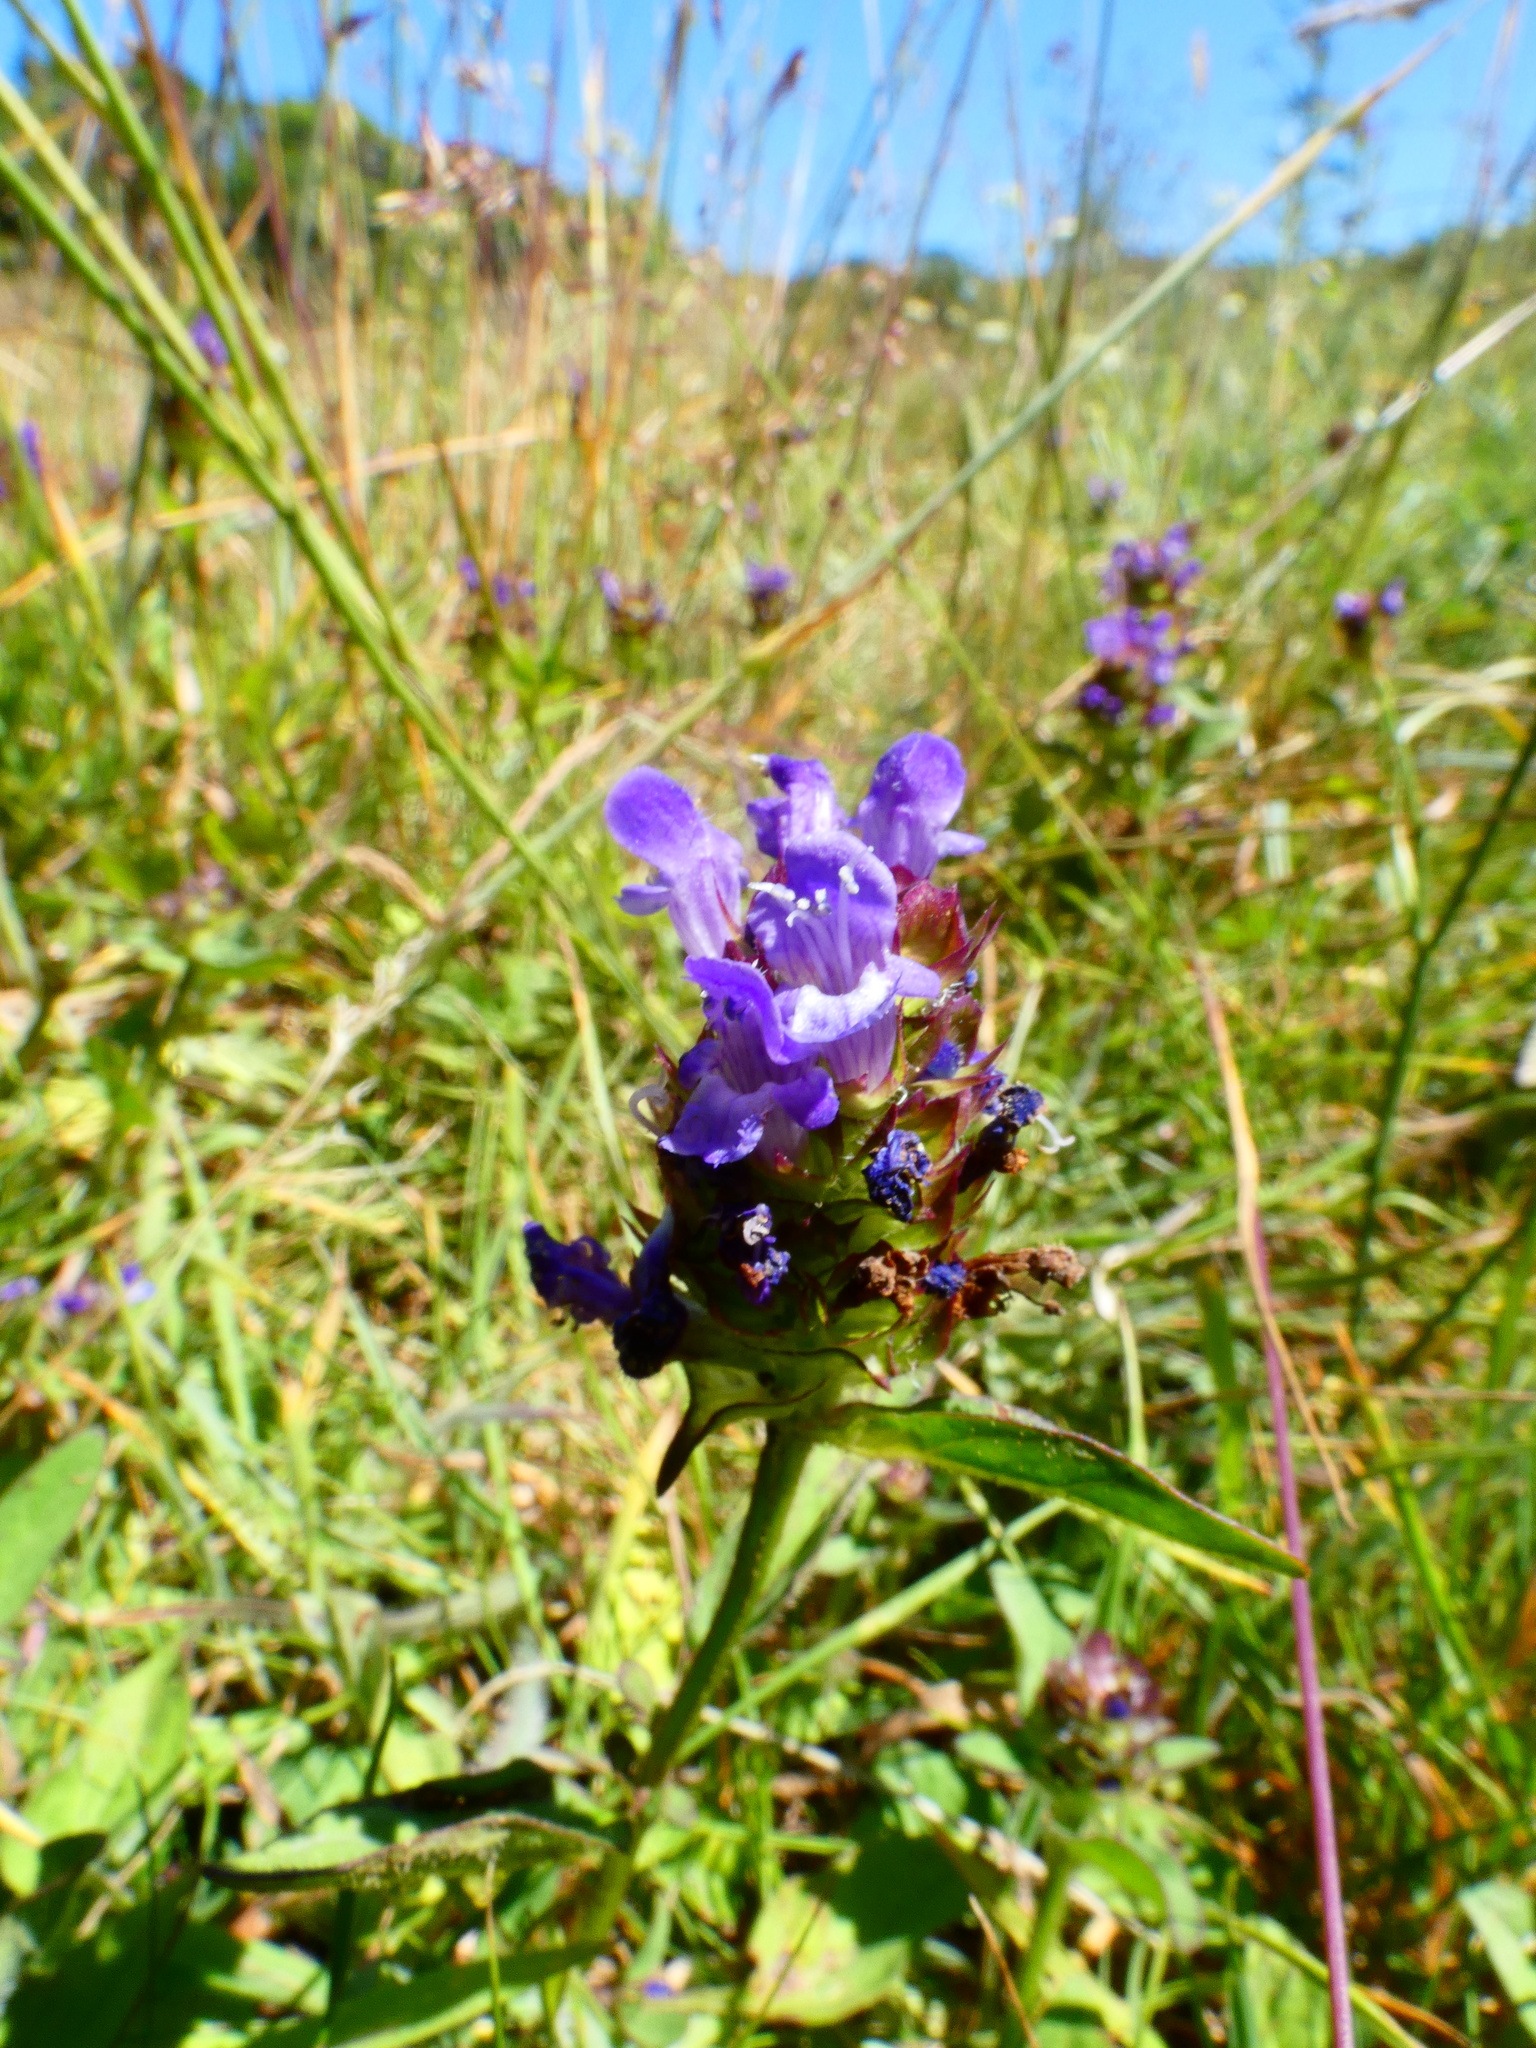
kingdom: Plantae
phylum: Tracheophyta
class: Magnoliopsida
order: Lamiales
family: Lamiaceae
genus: Prunella
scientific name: Prunella vulgaris
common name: Heal-all
